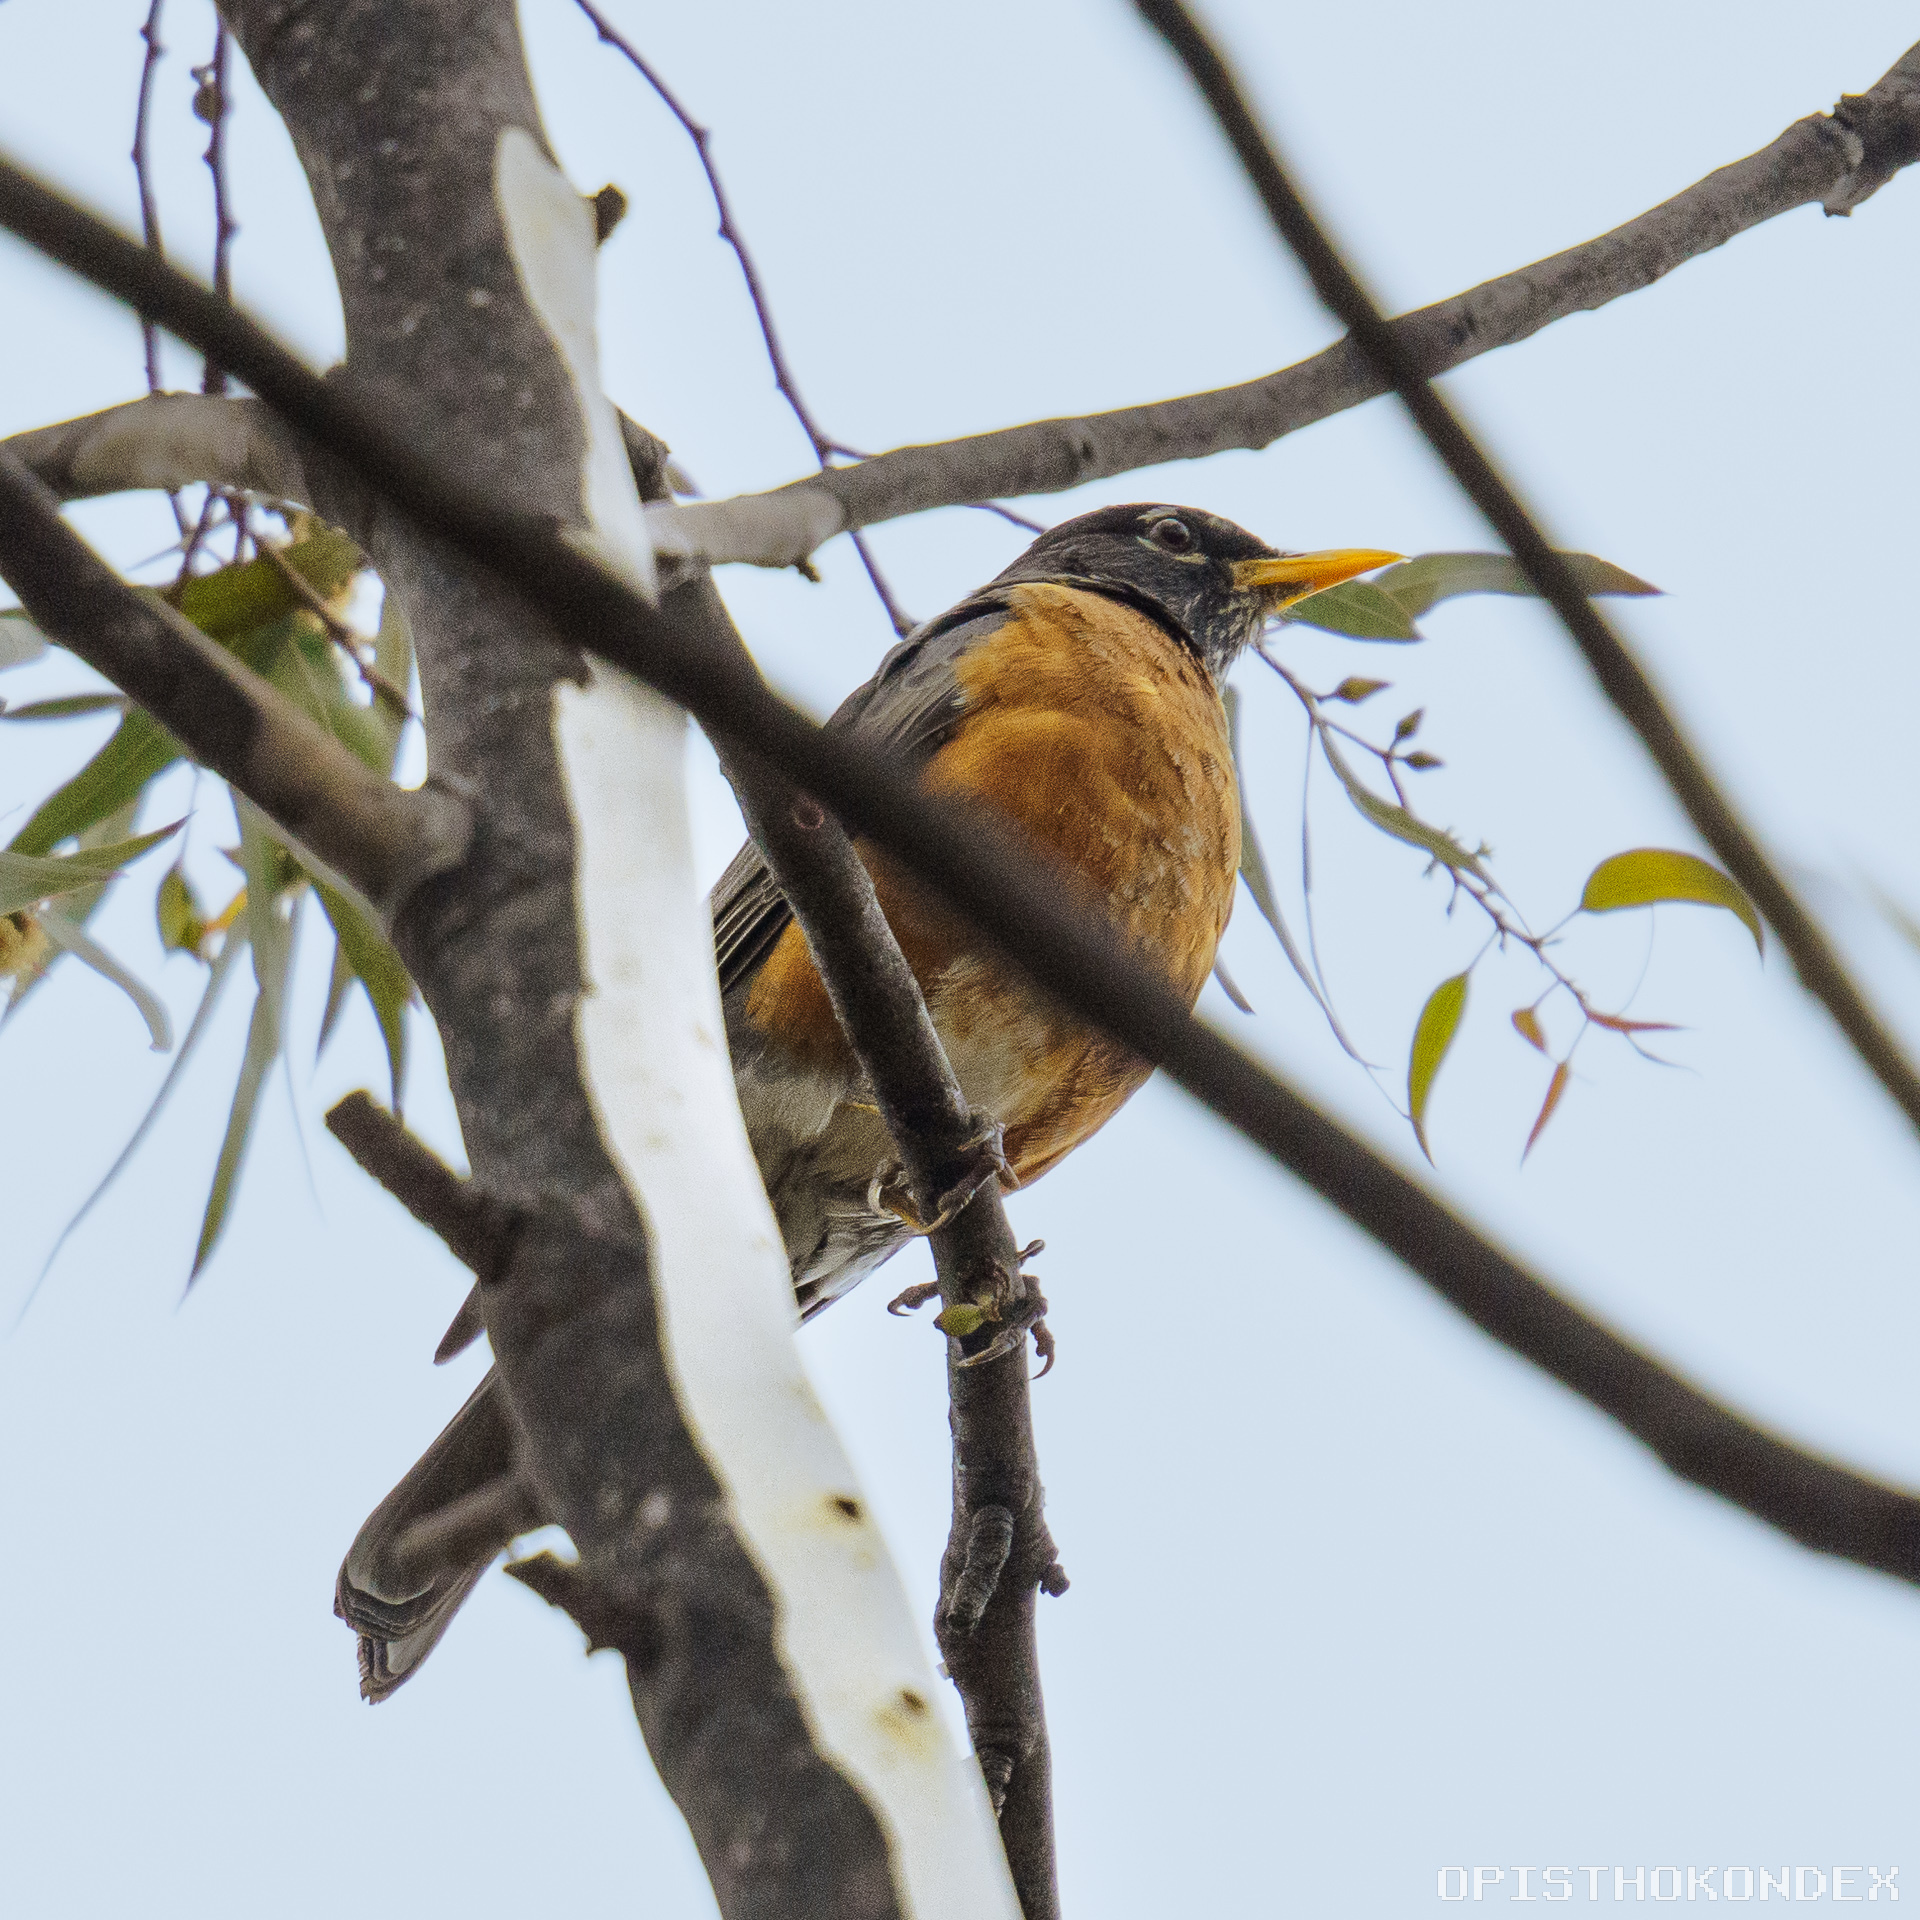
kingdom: Animalia
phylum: Chordata
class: Aves
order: Passeriformes
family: Turdidae
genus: Turdus
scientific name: Turdus migratorius
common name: American robin
